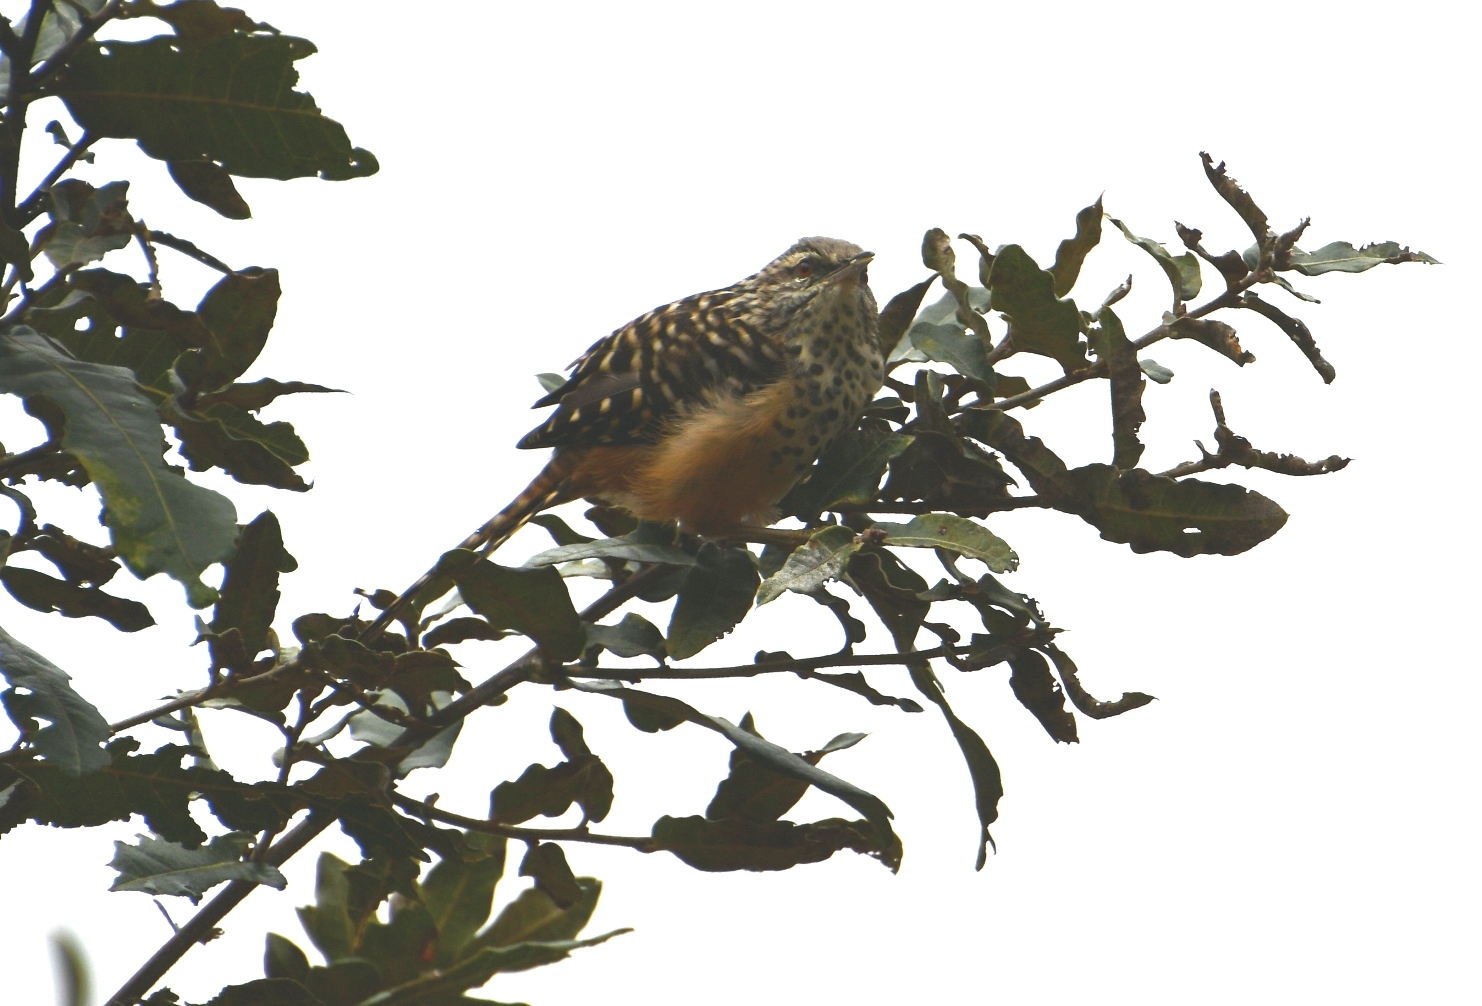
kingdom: Animalia
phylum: Chordata
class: Aves
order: Passeriformes
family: Troglodytidae
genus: Campylorhynchus
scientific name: Campylorhynchus zonatus
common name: Band-backed wren
